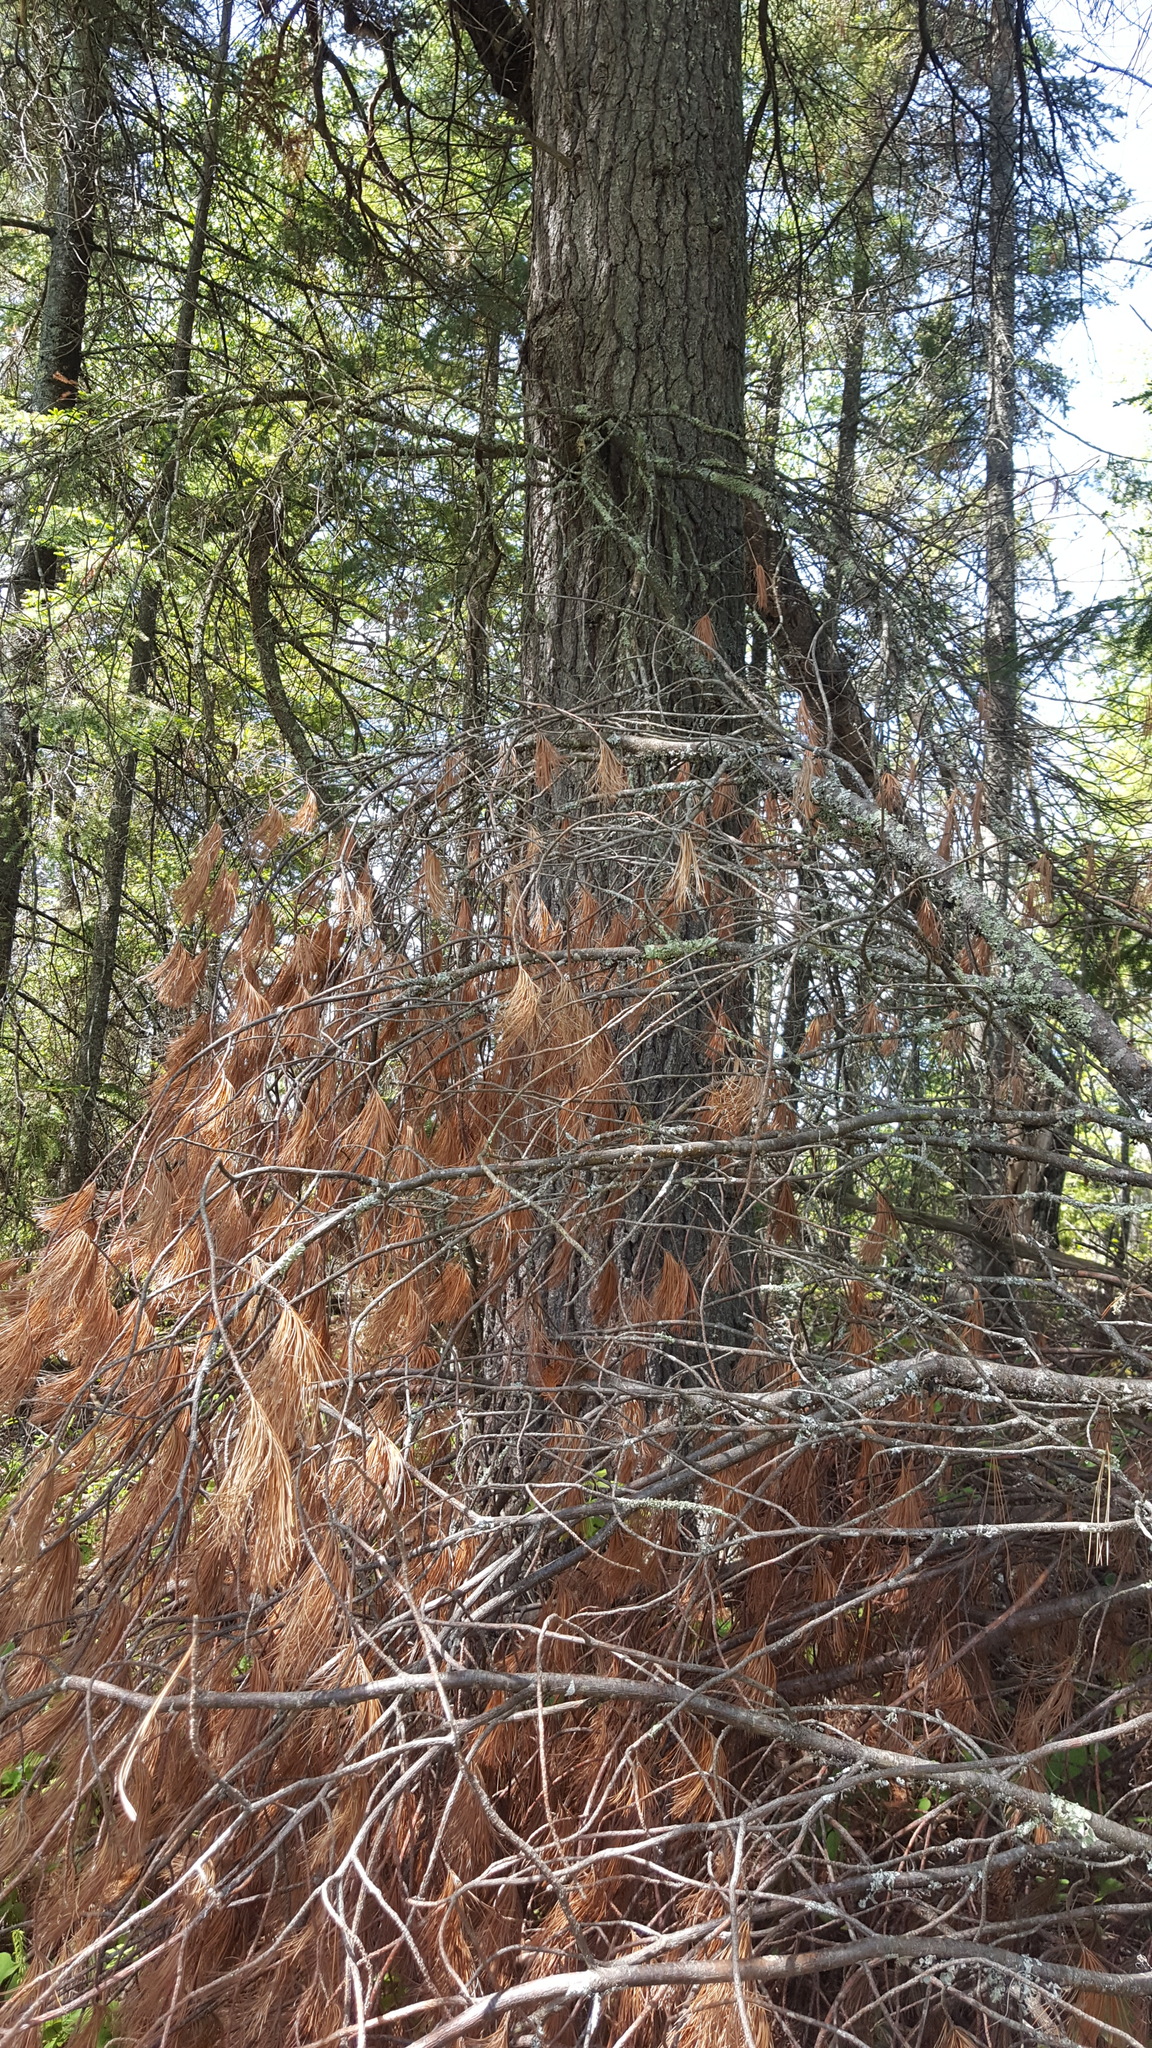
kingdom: Plantae
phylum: Tracheophyta
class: Pinopsida
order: Pinales
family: Pinaceae
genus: Pinus
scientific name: Pinus strobus
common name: Weymouth pine
